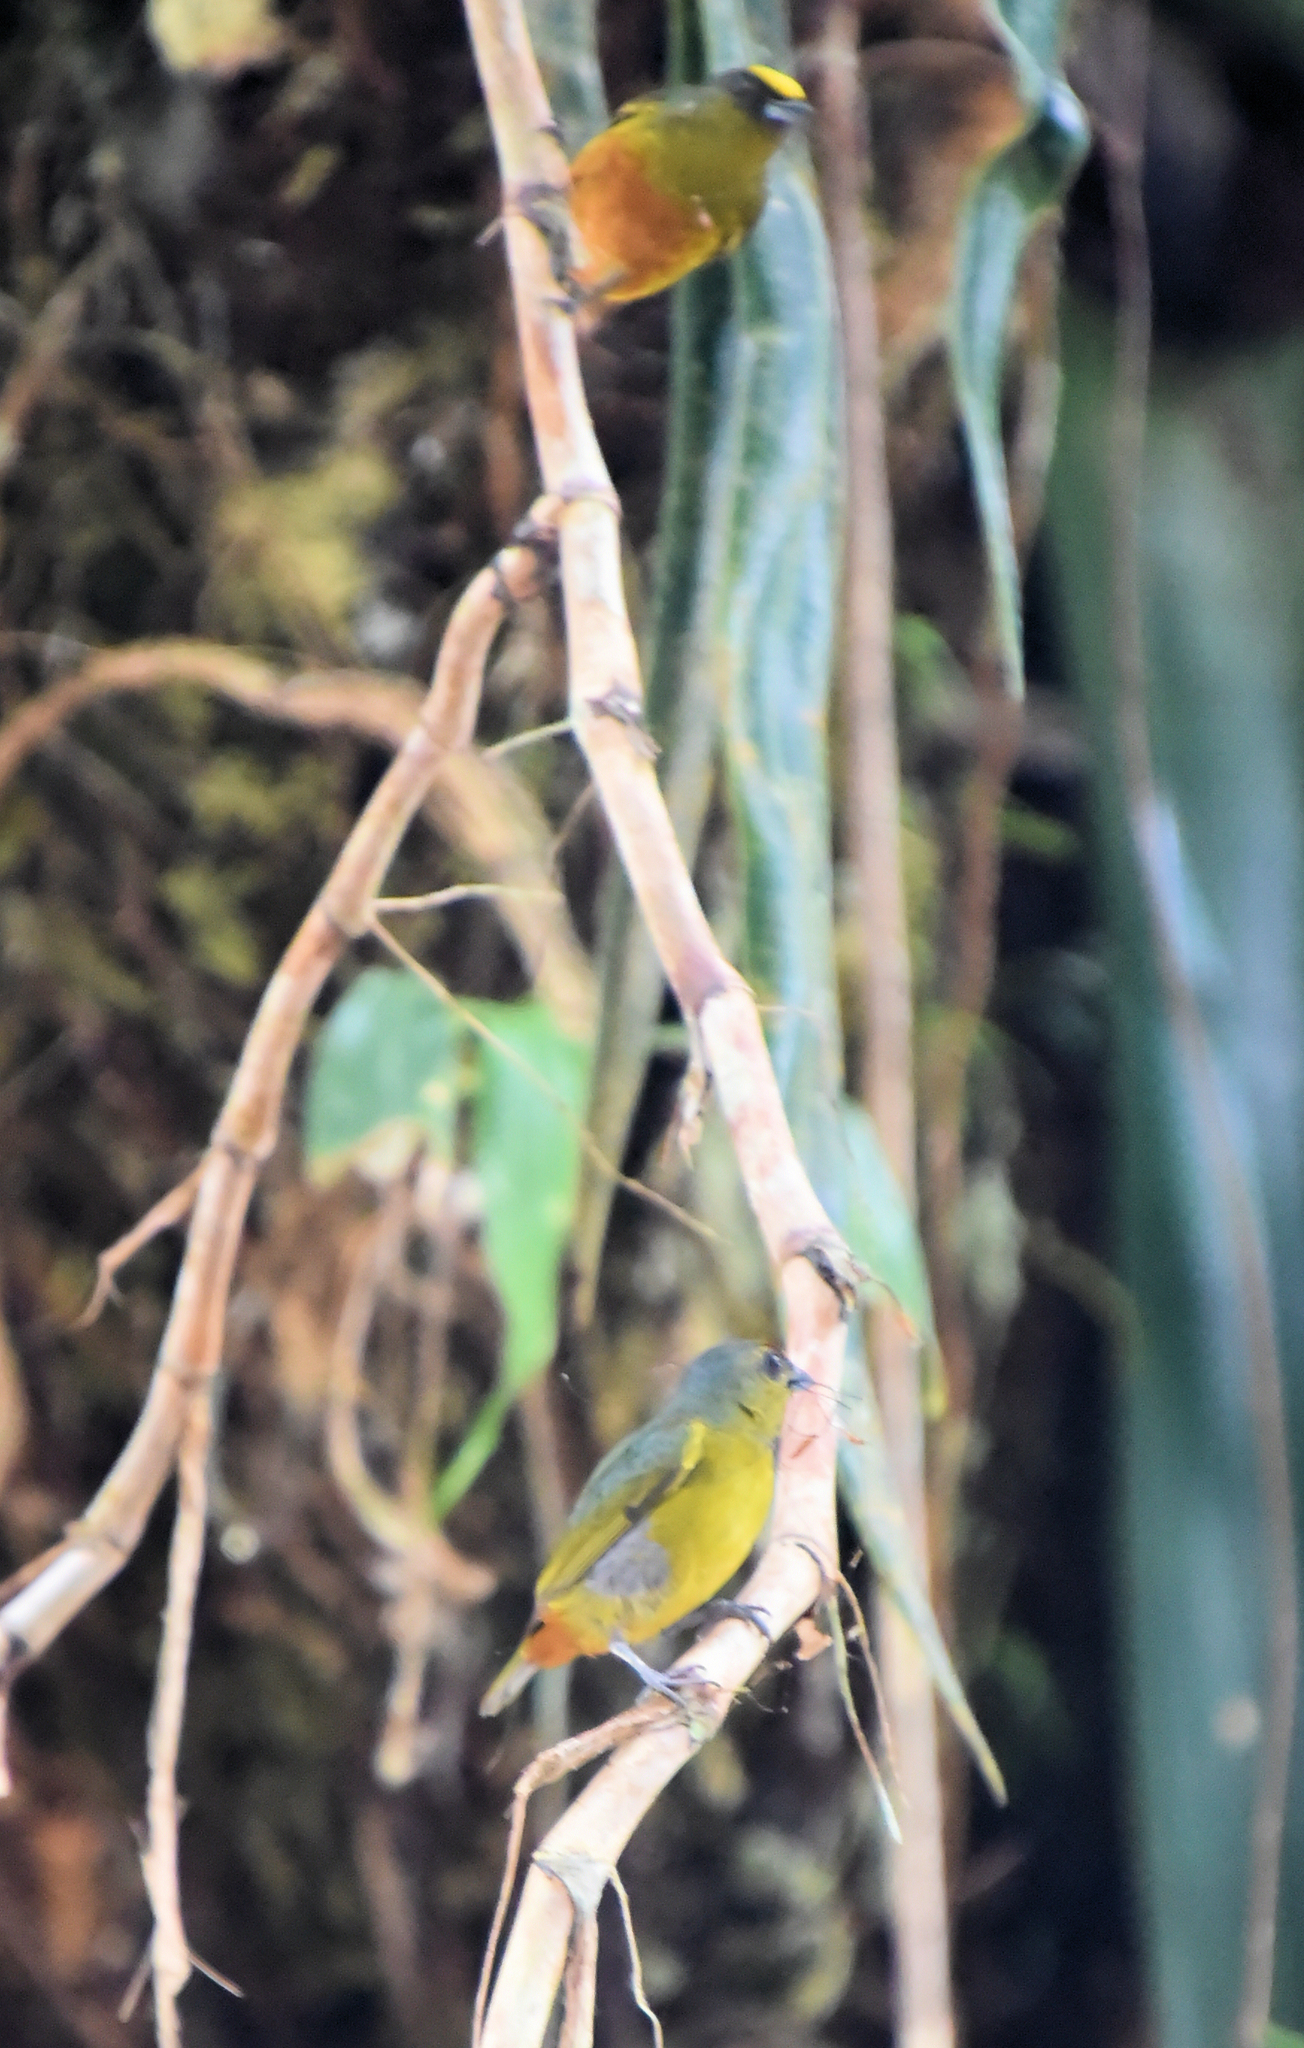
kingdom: Animalia
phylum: Chordata
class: Aves
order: Passeriformes
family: Fringillidae
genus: Euphonia
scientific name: Euphonia gouldi
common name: Olive-backed euphonia
